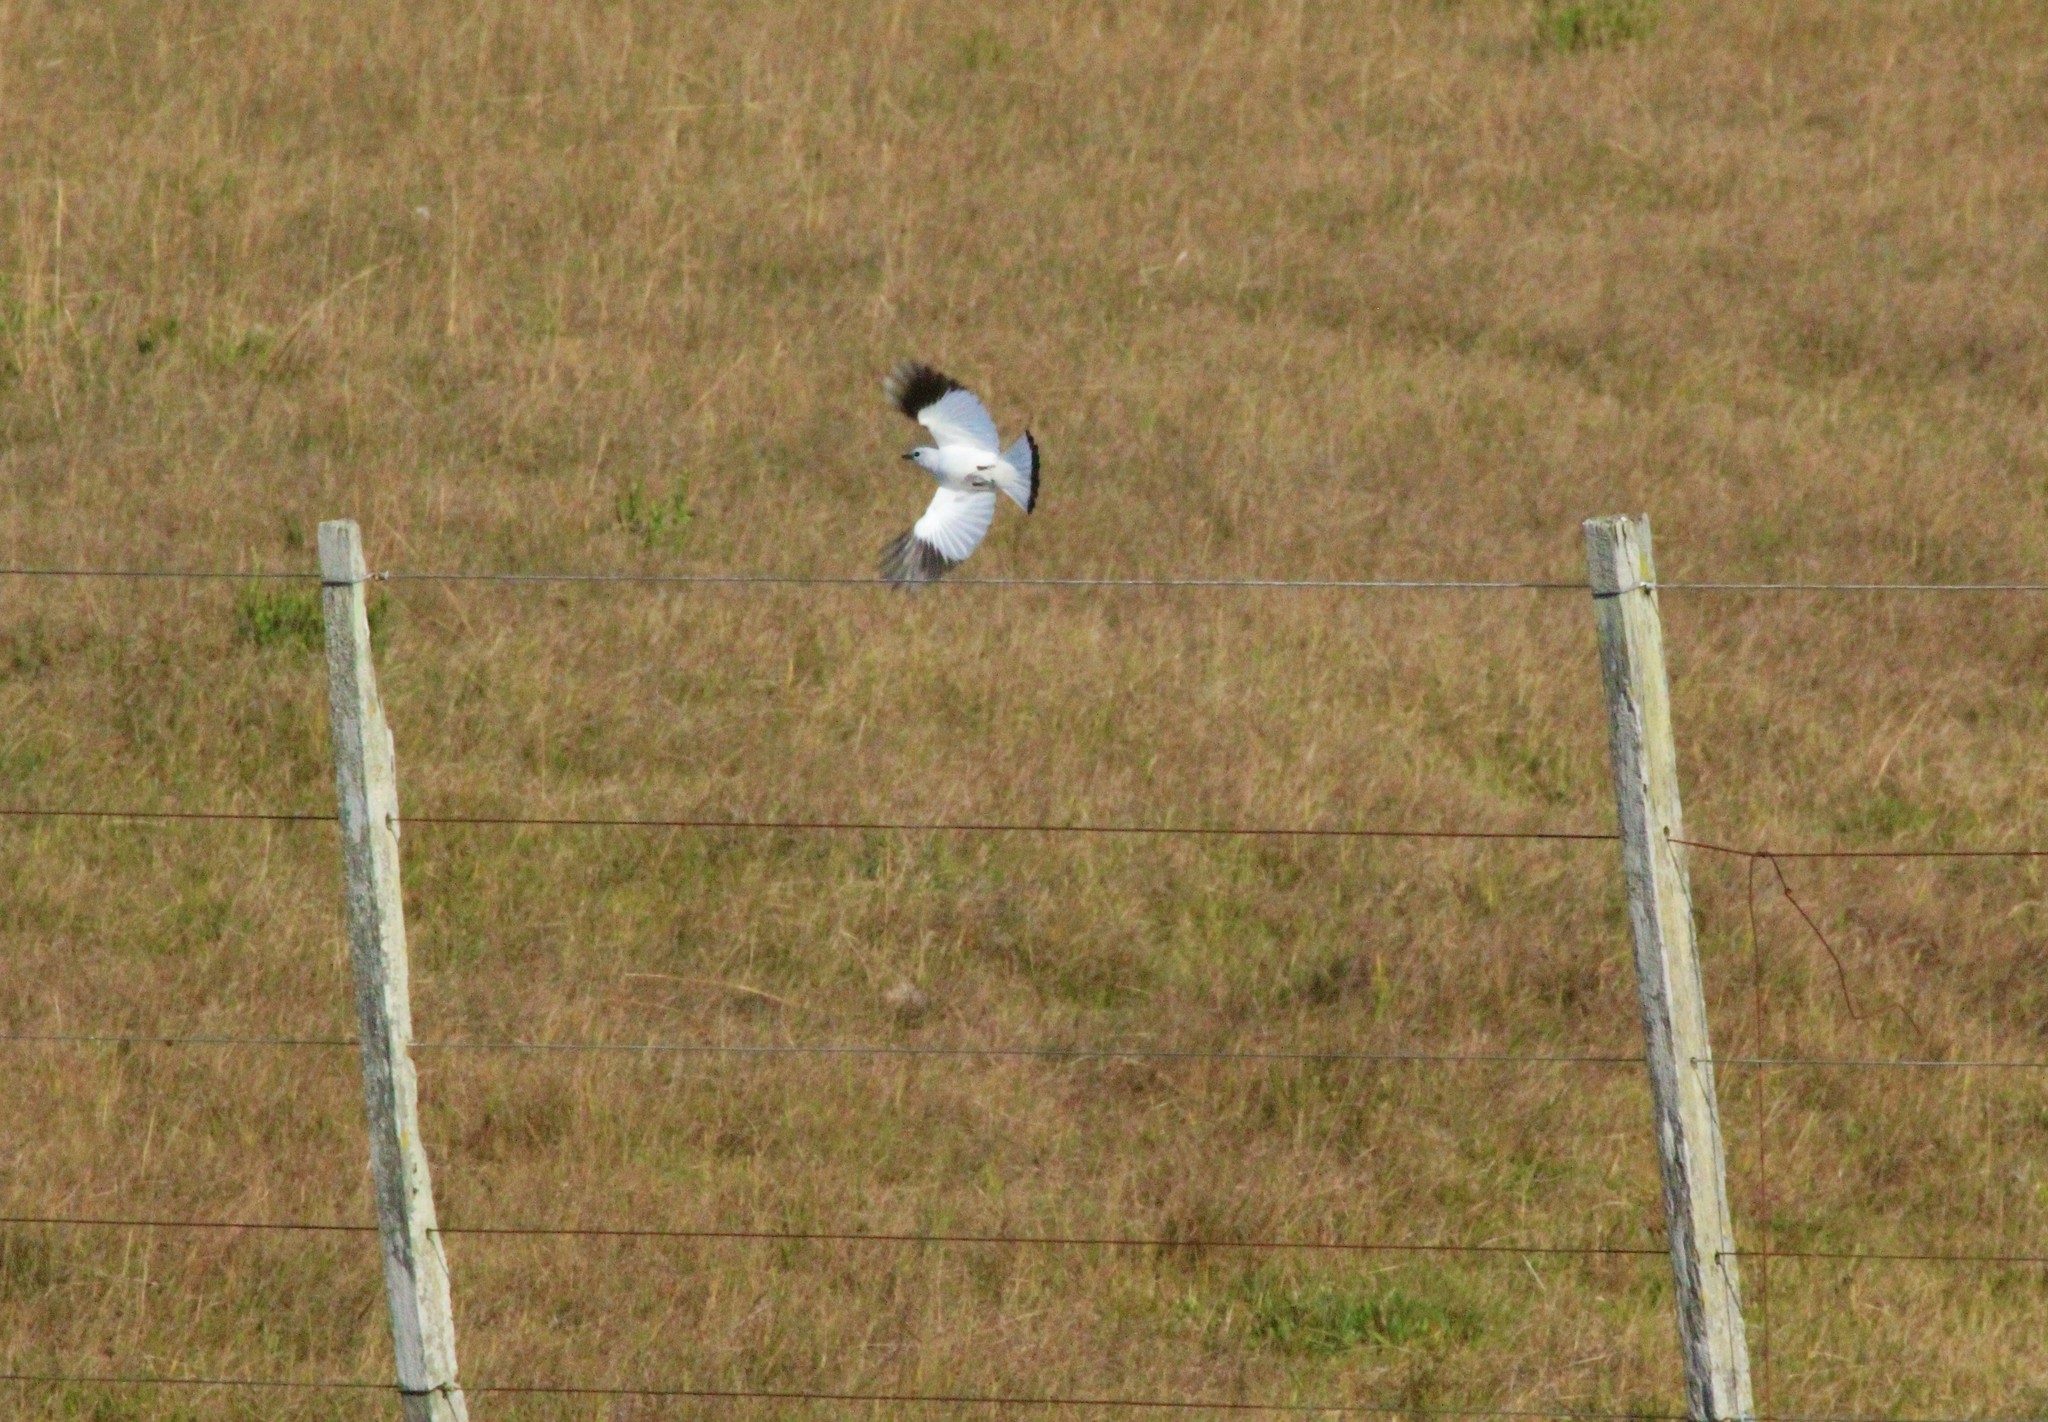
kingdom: Animalia
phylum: Chordata
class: Aves
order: Passeriformes
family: Tyrannidae
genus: Xolmis
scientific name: Xolmis irupero
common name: White monjita
